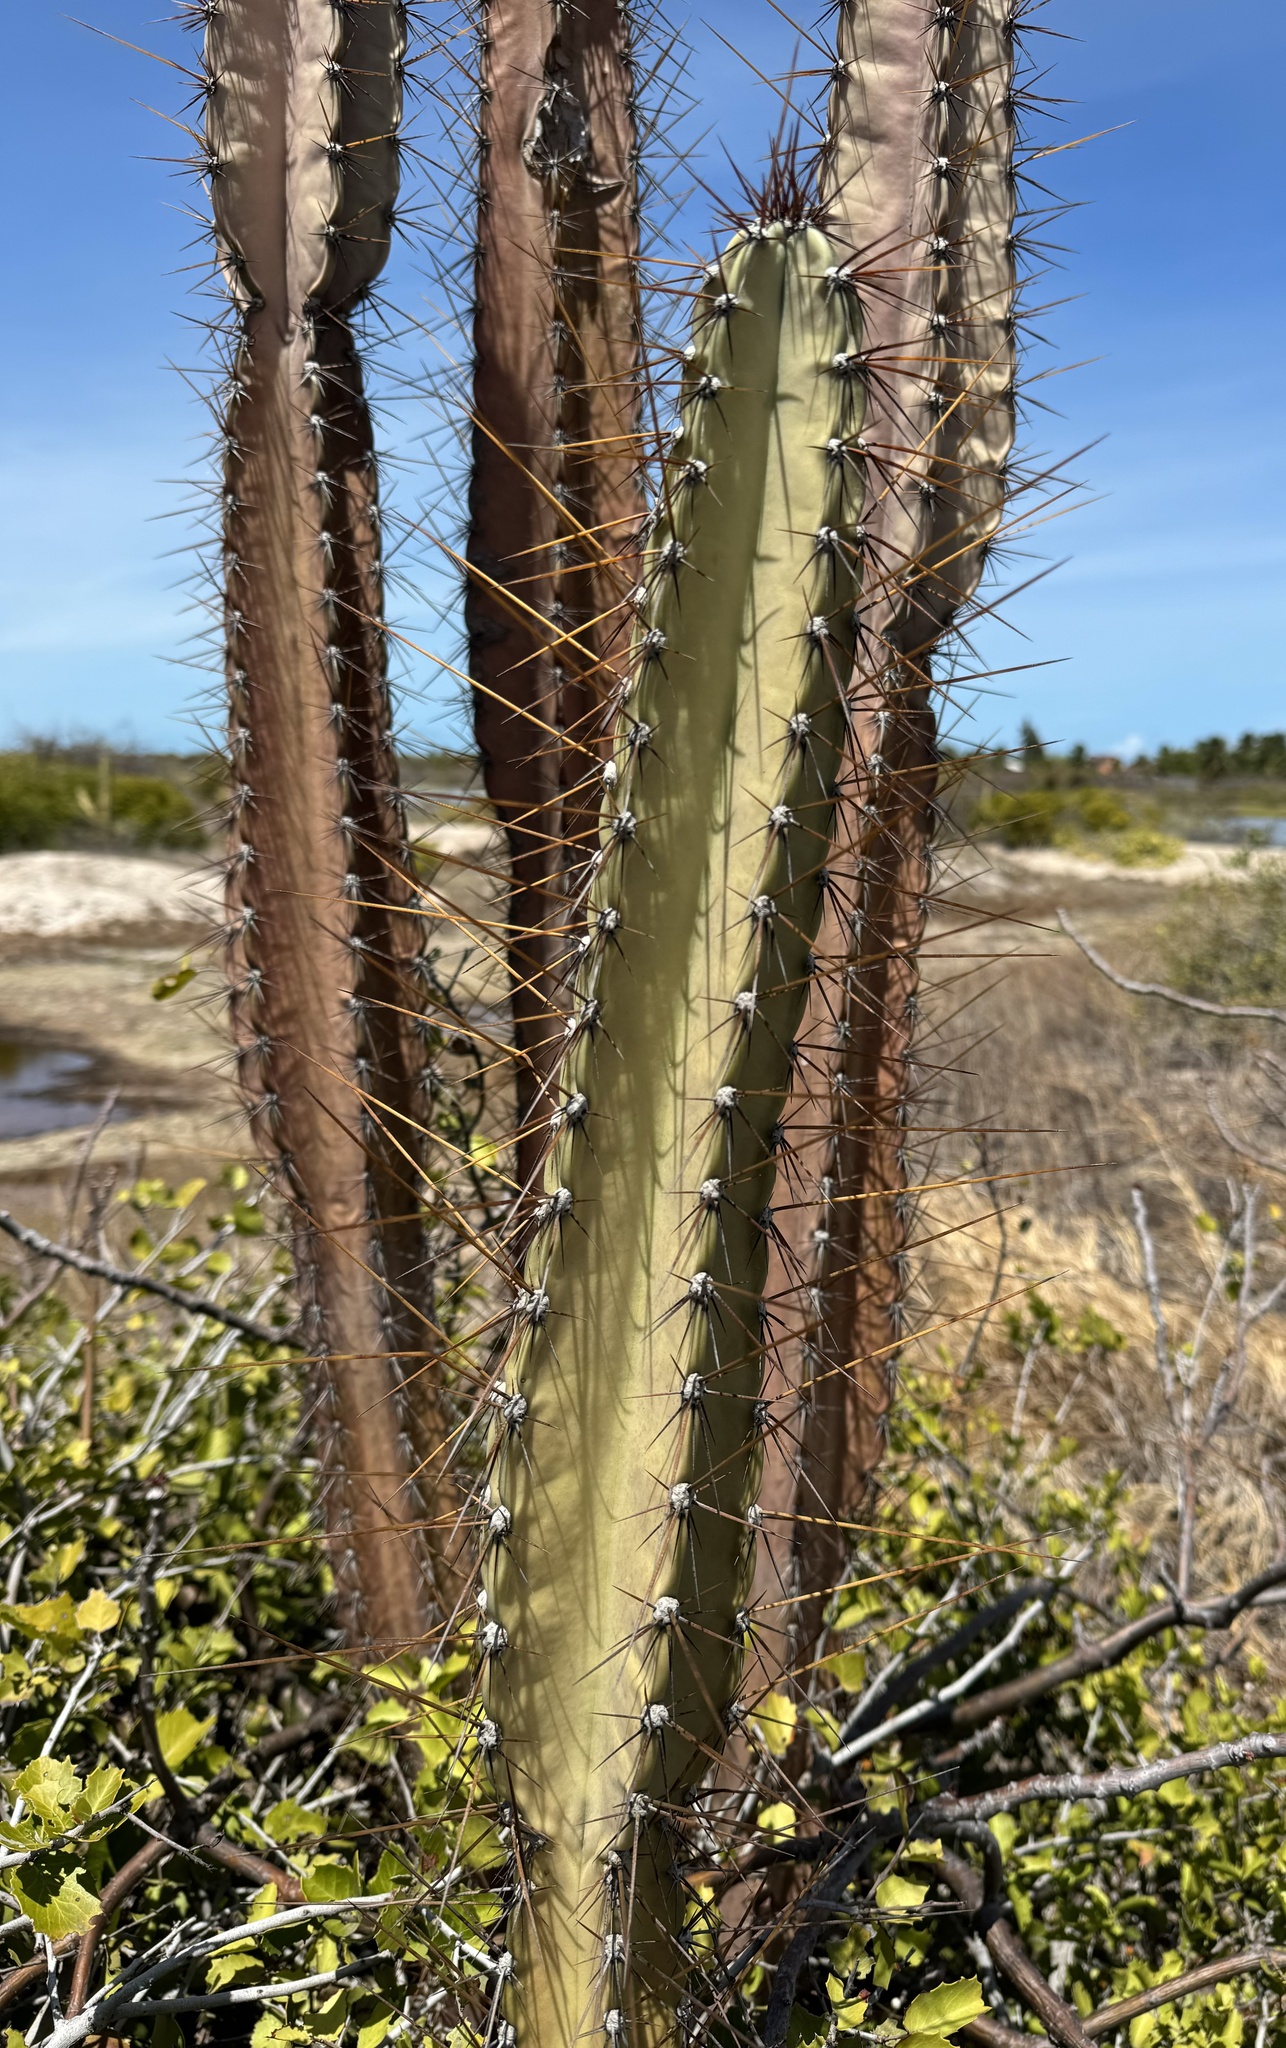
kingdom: Plantae
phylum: Tracheophyta
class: Magnoliopsida
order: Caryophyllales
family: Cactaceae
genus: Cereus
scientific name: Cereus jamacaru
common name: Queen-of-the-night
